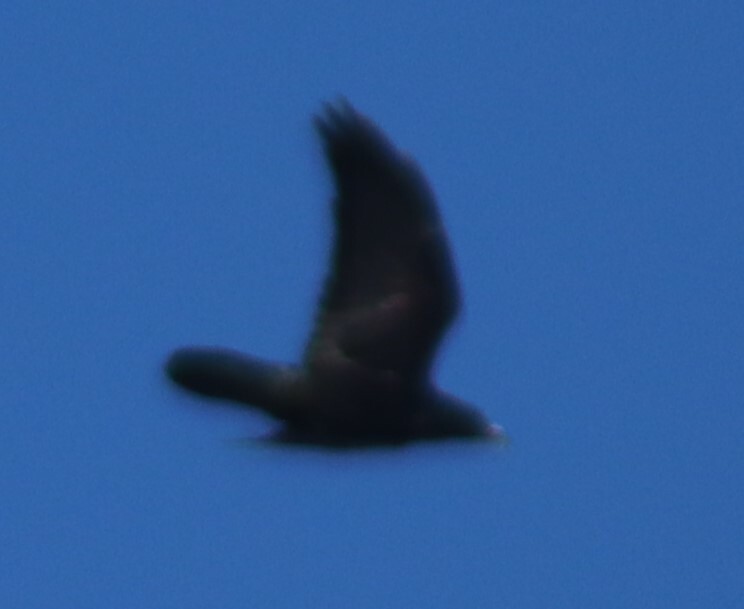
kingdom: Animalia
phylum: Chordata
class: Aves
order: Passeriformes
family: Corvidae
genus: Corvus
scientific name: Corvus corax
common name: Common raven
